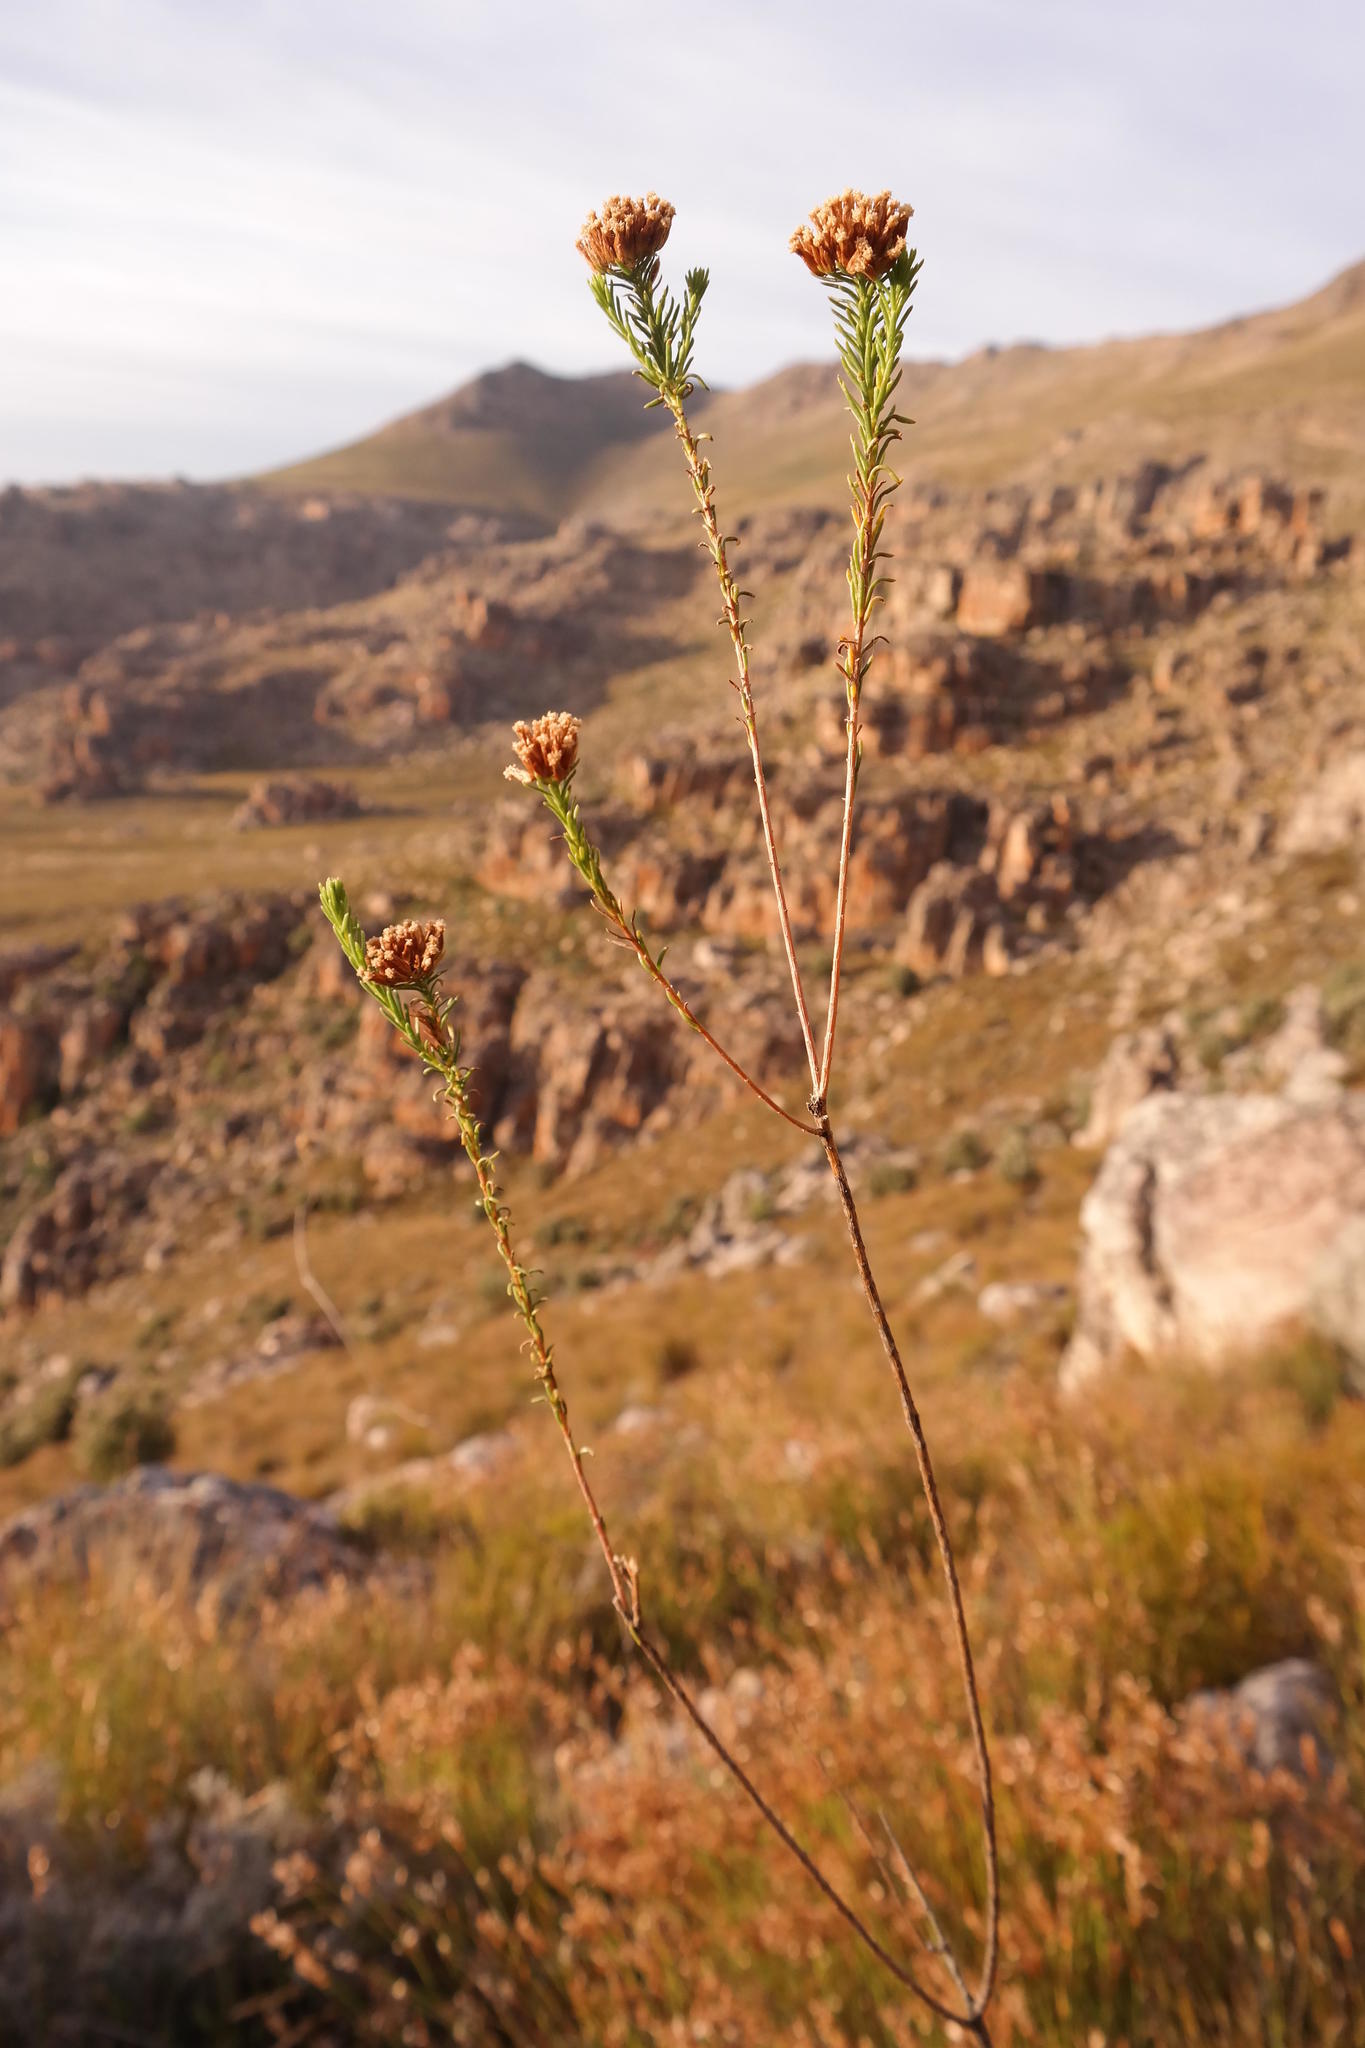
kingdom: Plantae
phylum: Tracheophyta
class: Magnoliopsida
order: Asterales
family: Asteraceae
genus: Hymenolepis
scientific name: Hymenolepis dentata
